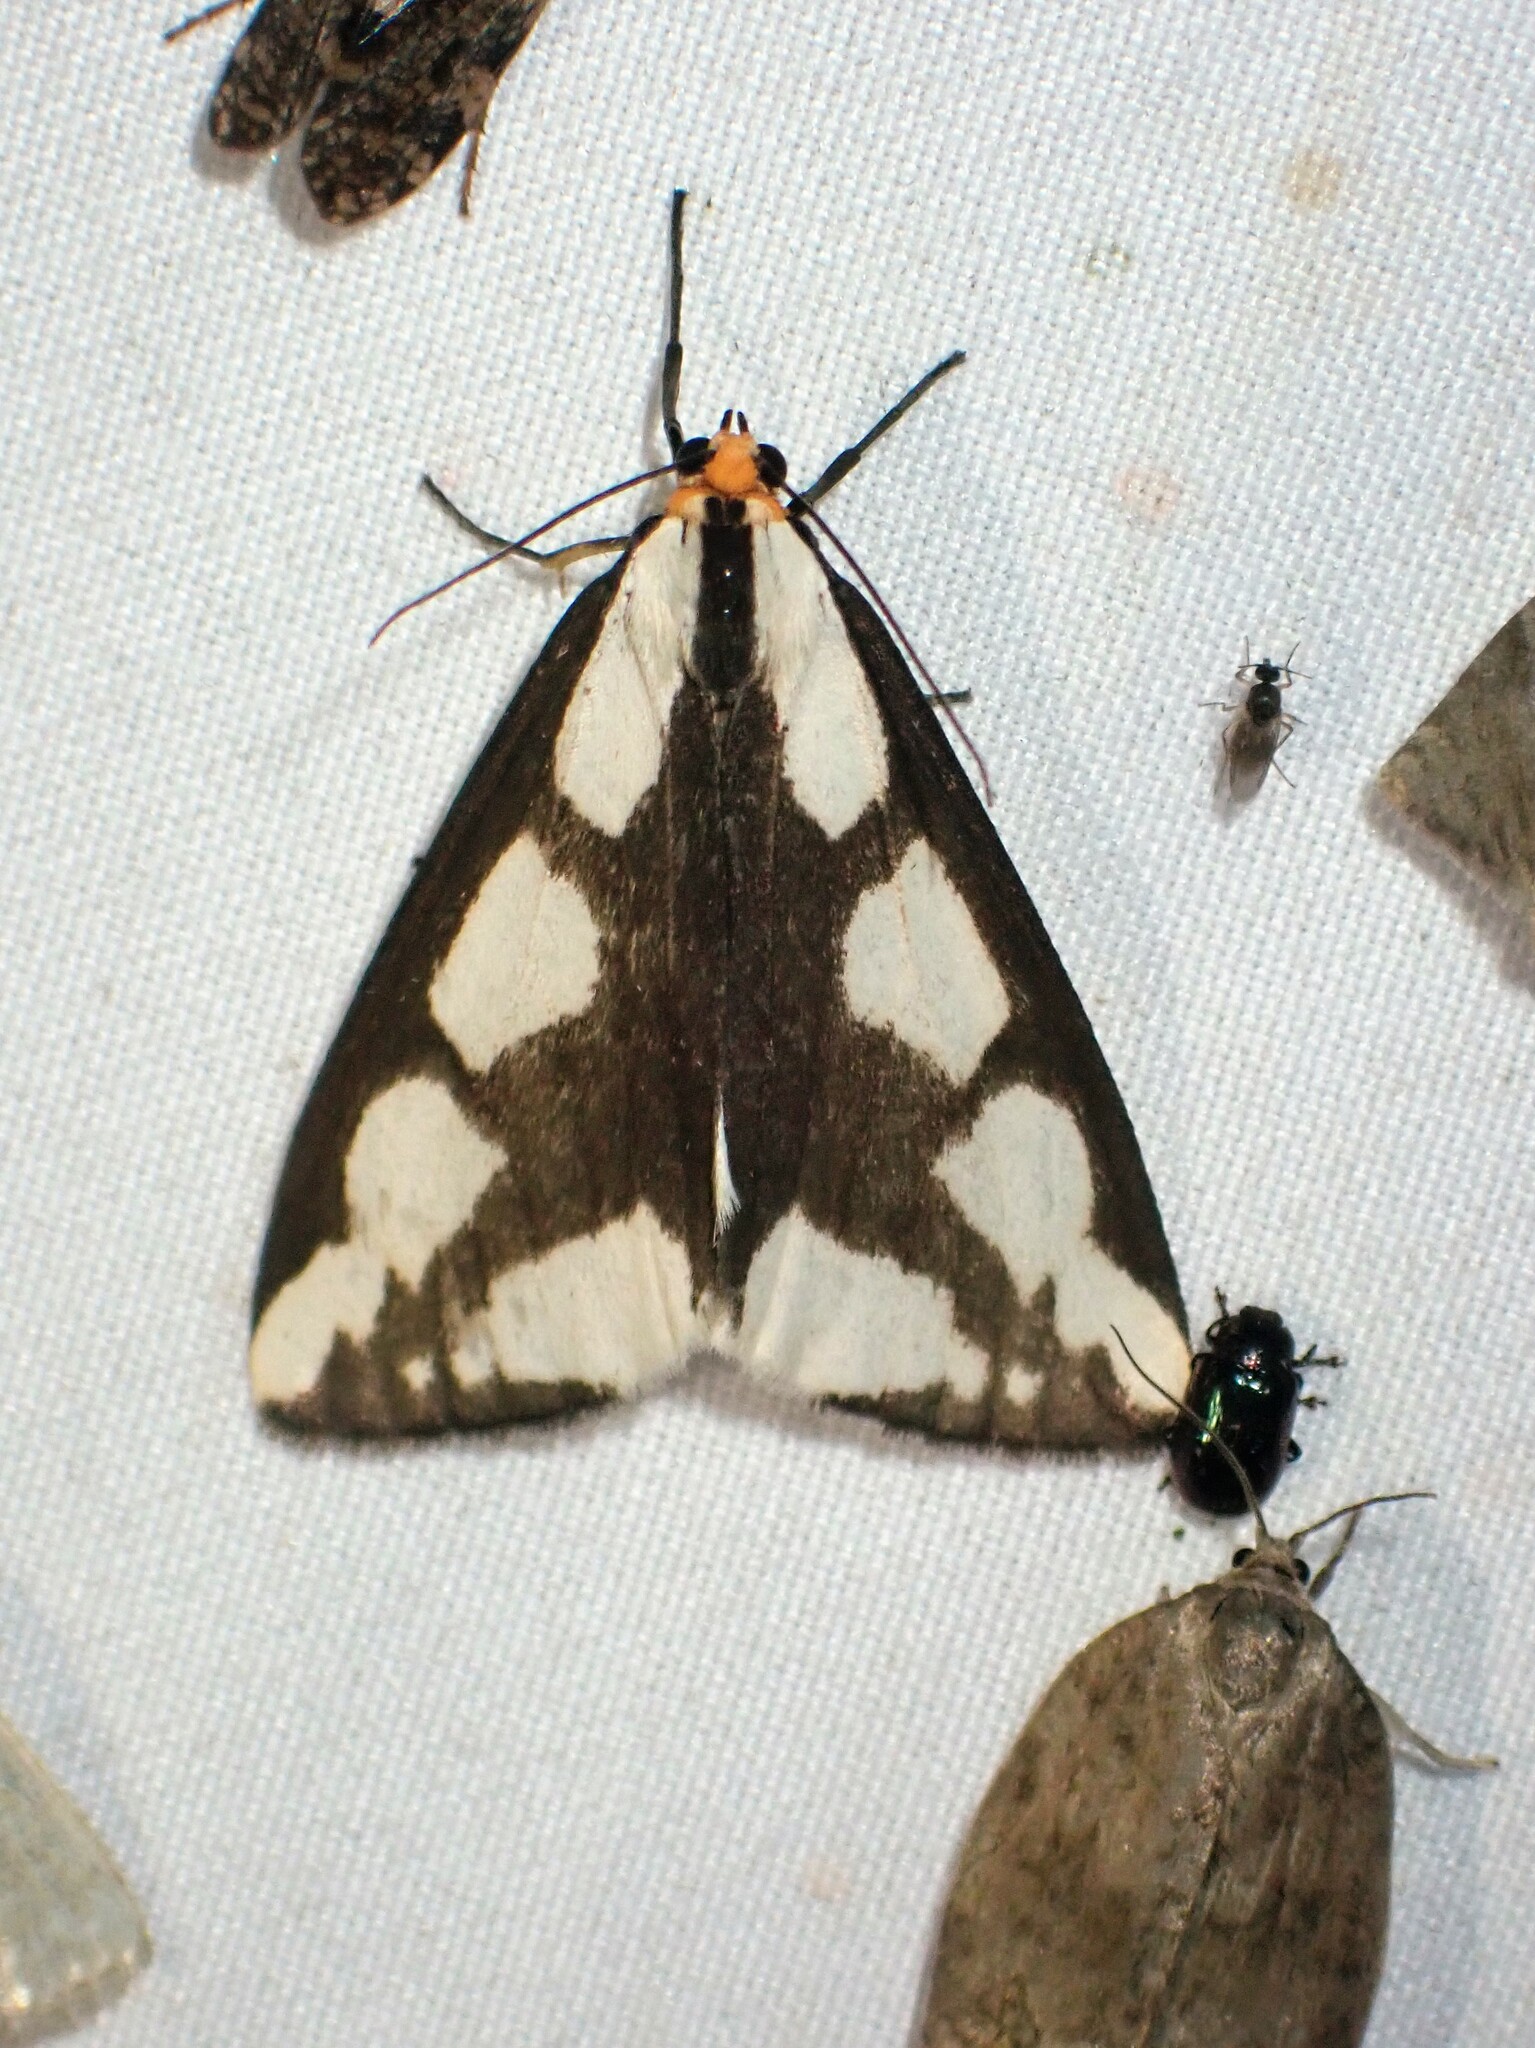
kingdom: Animalia
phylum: Arthropoda
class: Insecta
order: Lepidoptera
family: Erebidae
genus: Haploa
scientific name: Haploa lecontei
